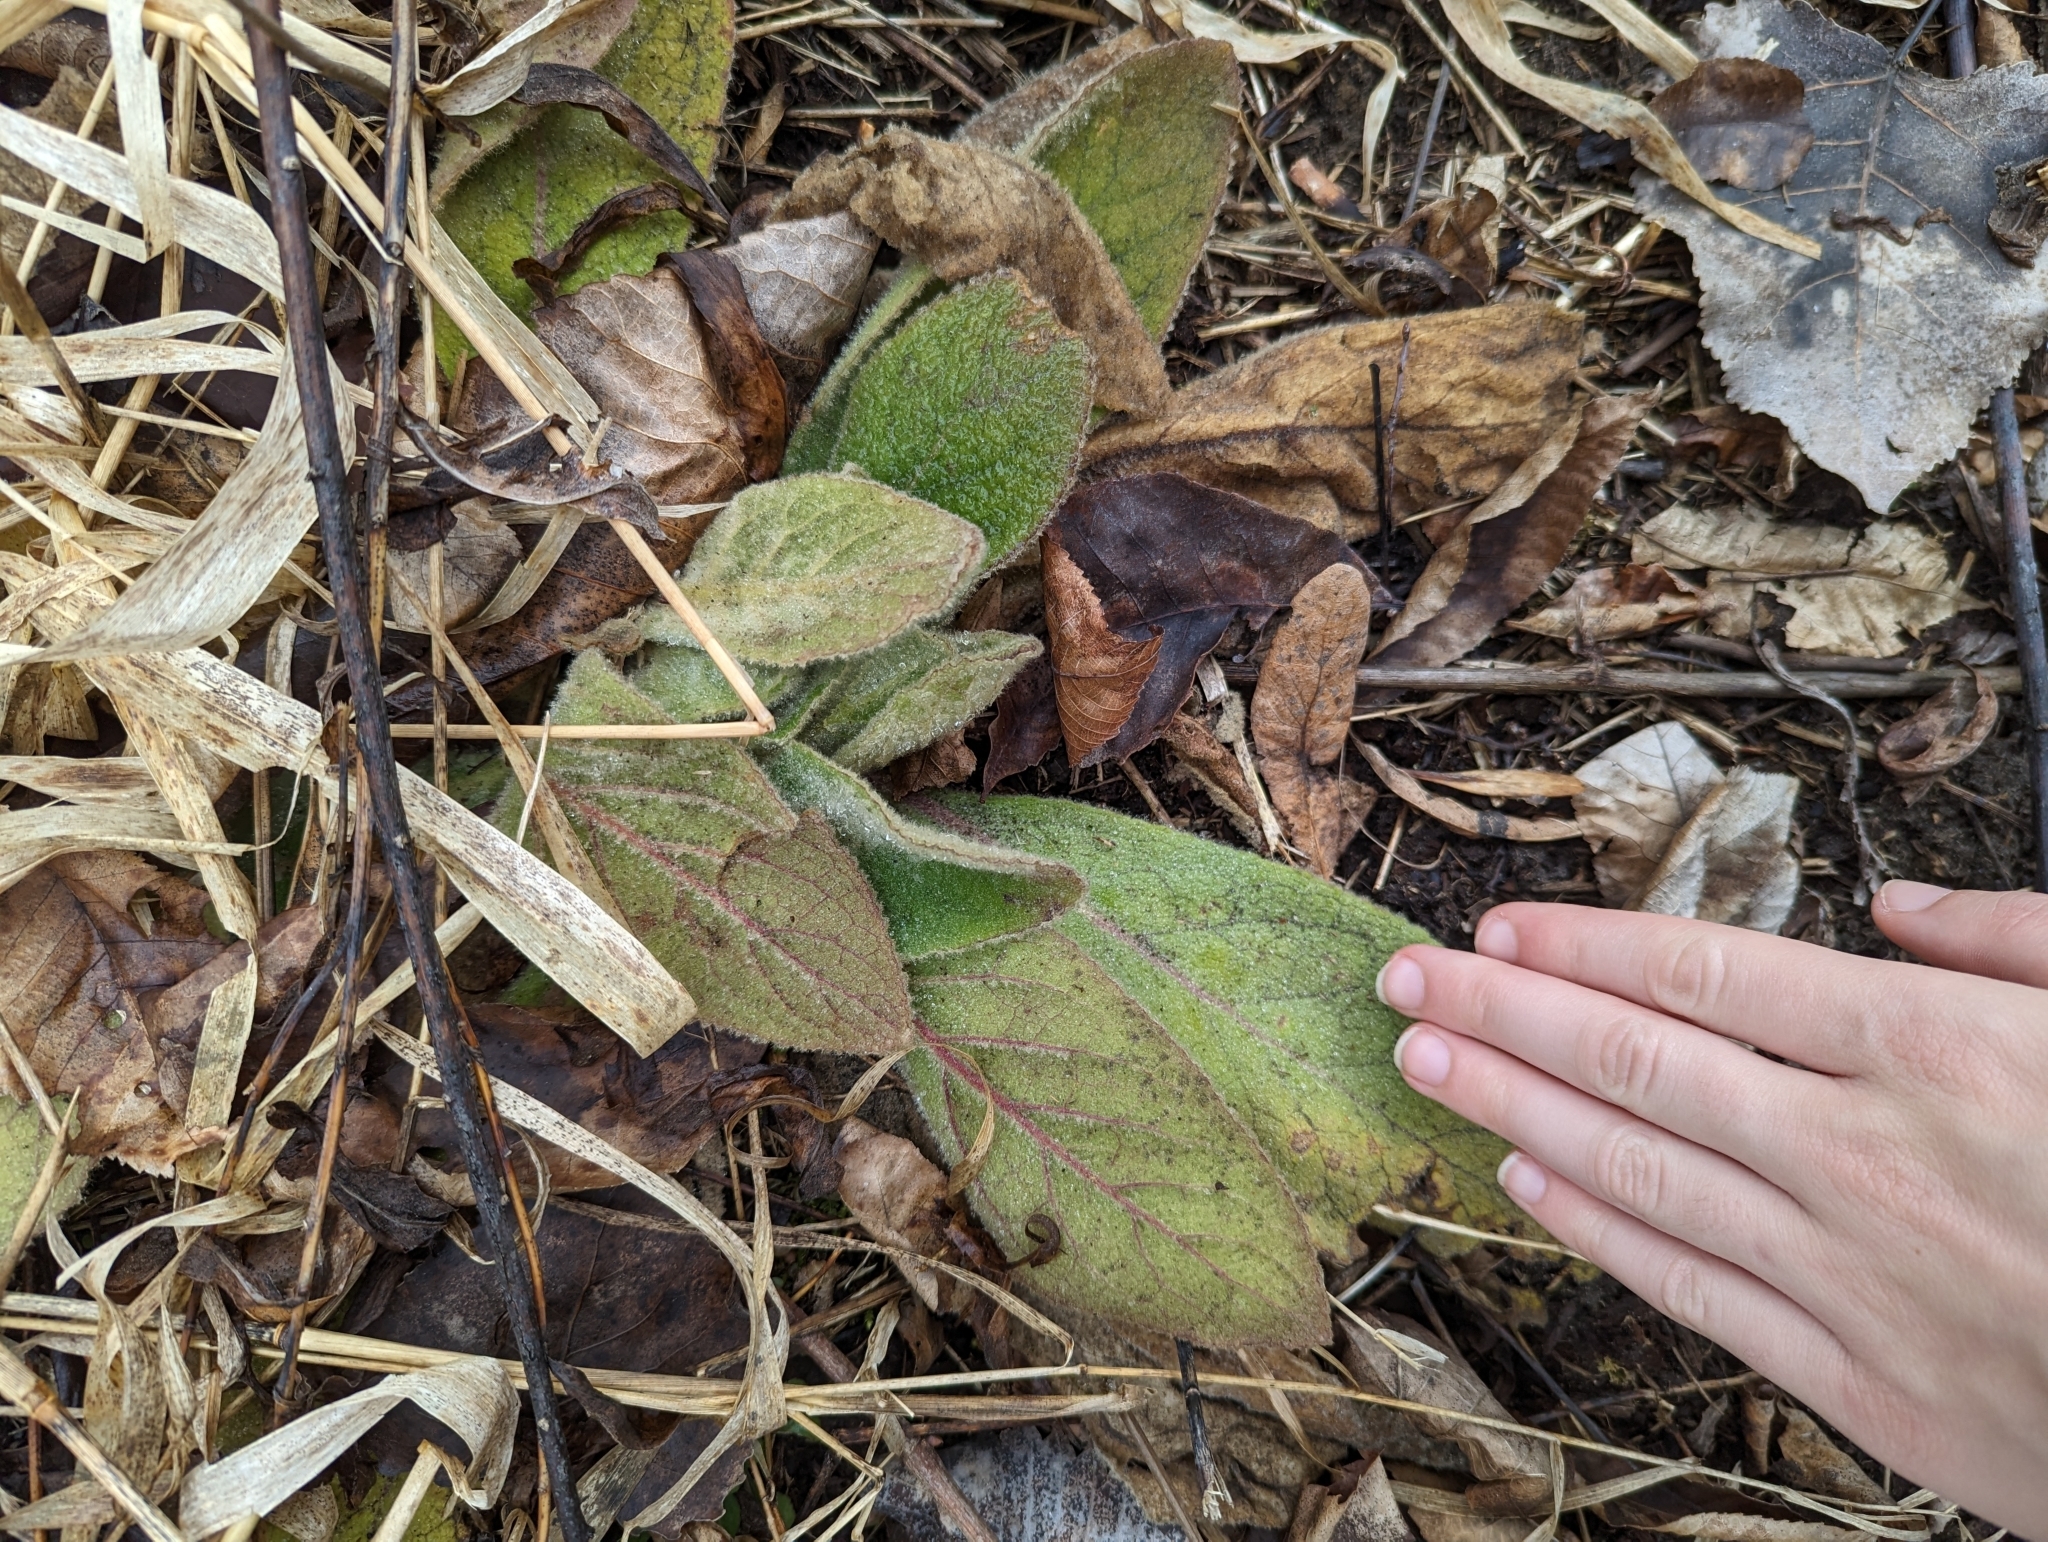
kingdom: Plantae
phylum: Tracheophyta
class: Magnoliopsida
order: Lamiales
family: Scrophulariaceae
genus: Verbascum
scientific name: Verbascum thapsus
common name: Common mullein
